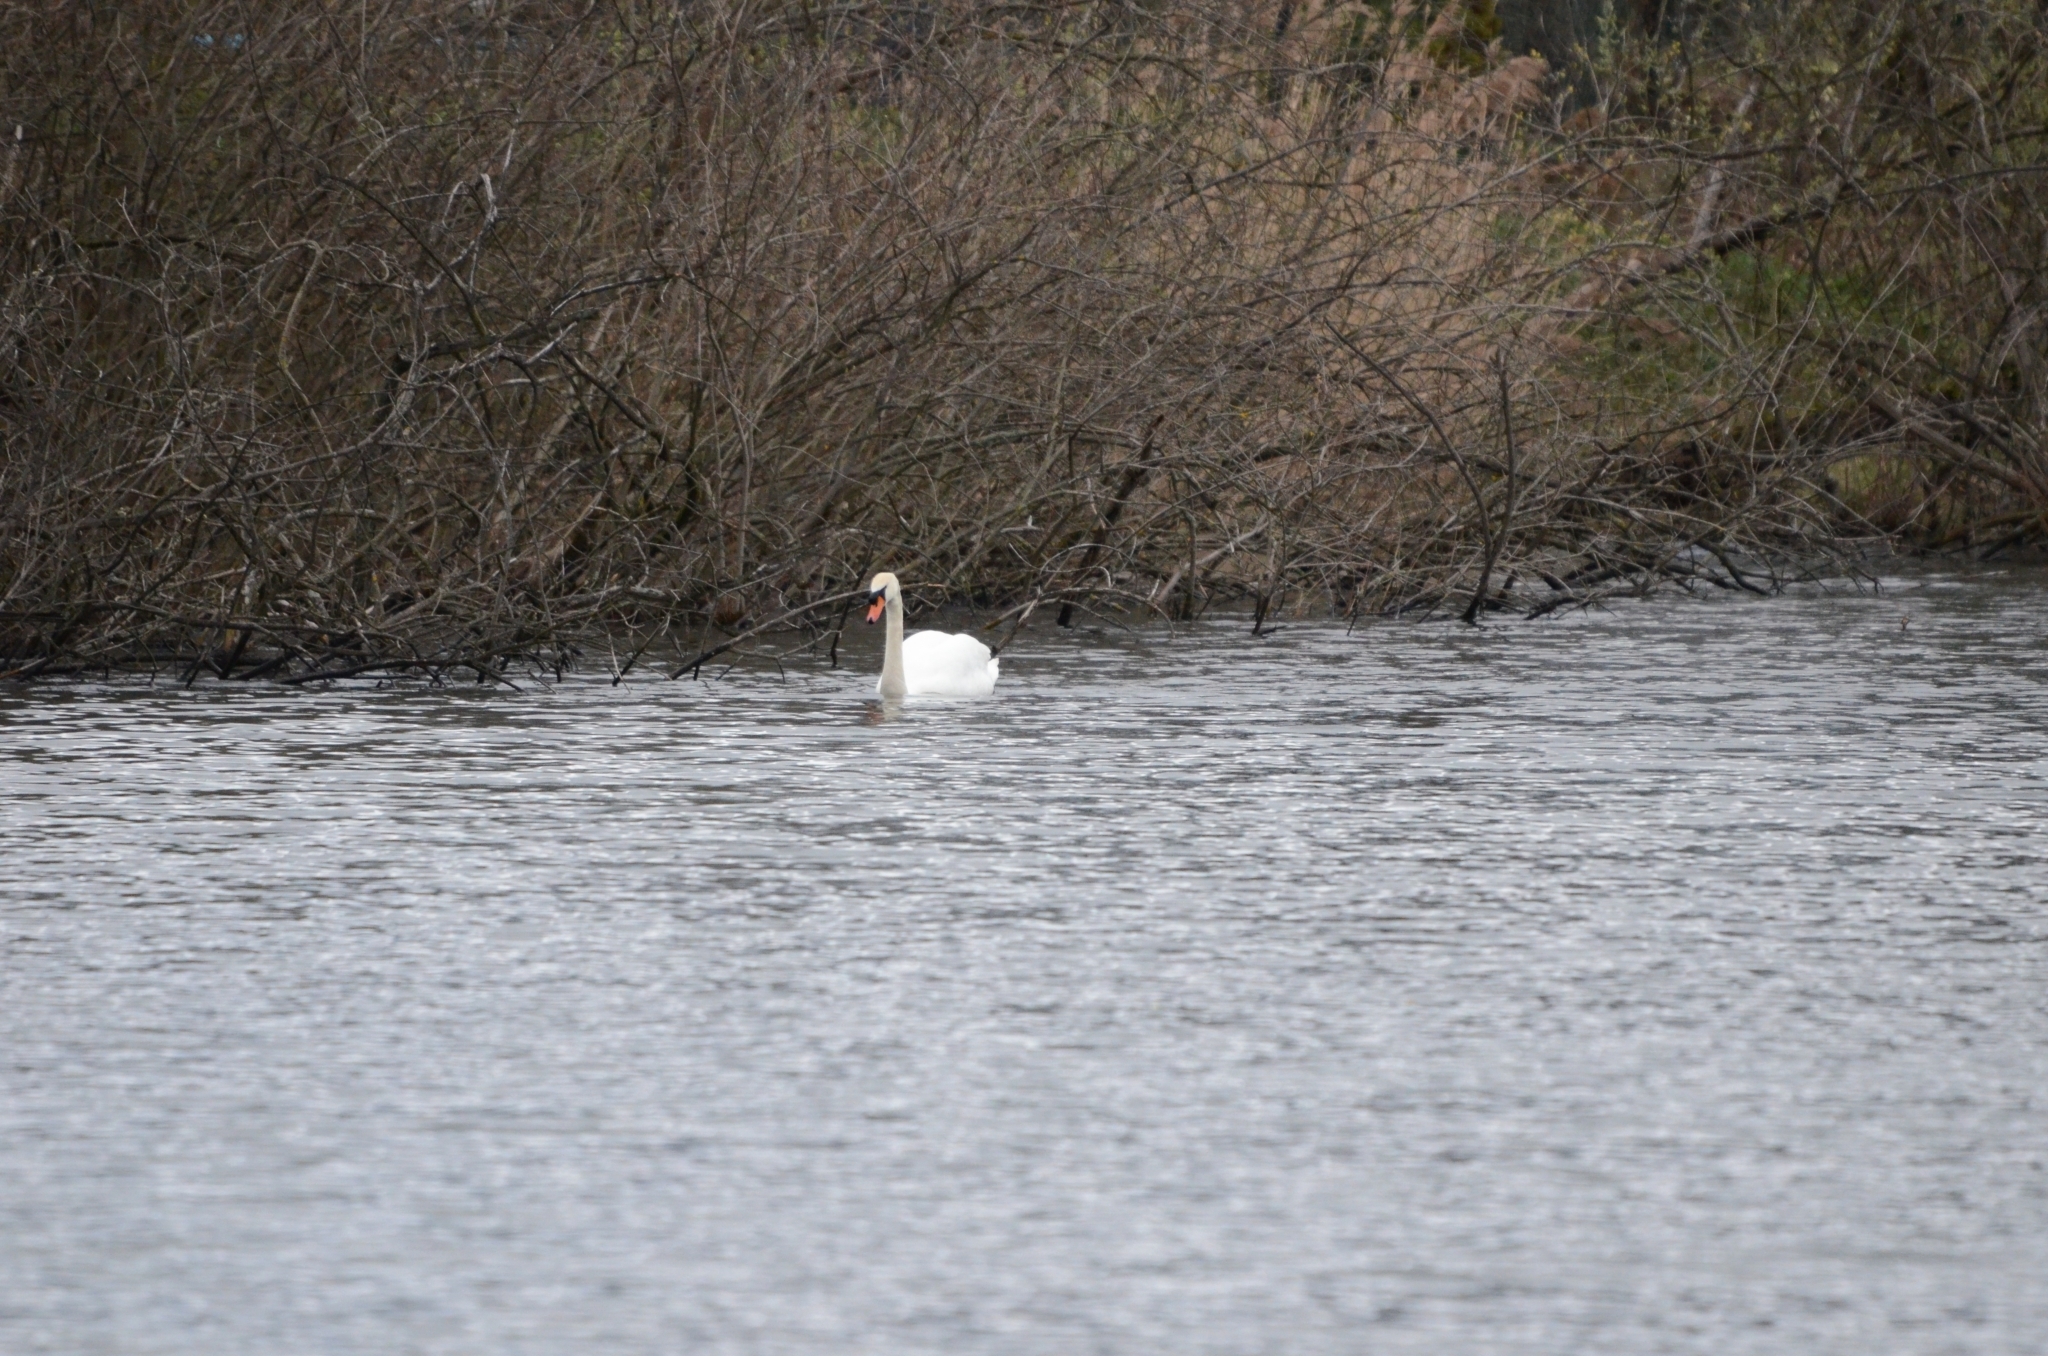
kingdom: Animalia
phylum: Chordata
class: Aves
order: Anseriformes
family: Anatidae
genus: Cygnus
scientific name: Cygnus olor
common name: Mute swan
